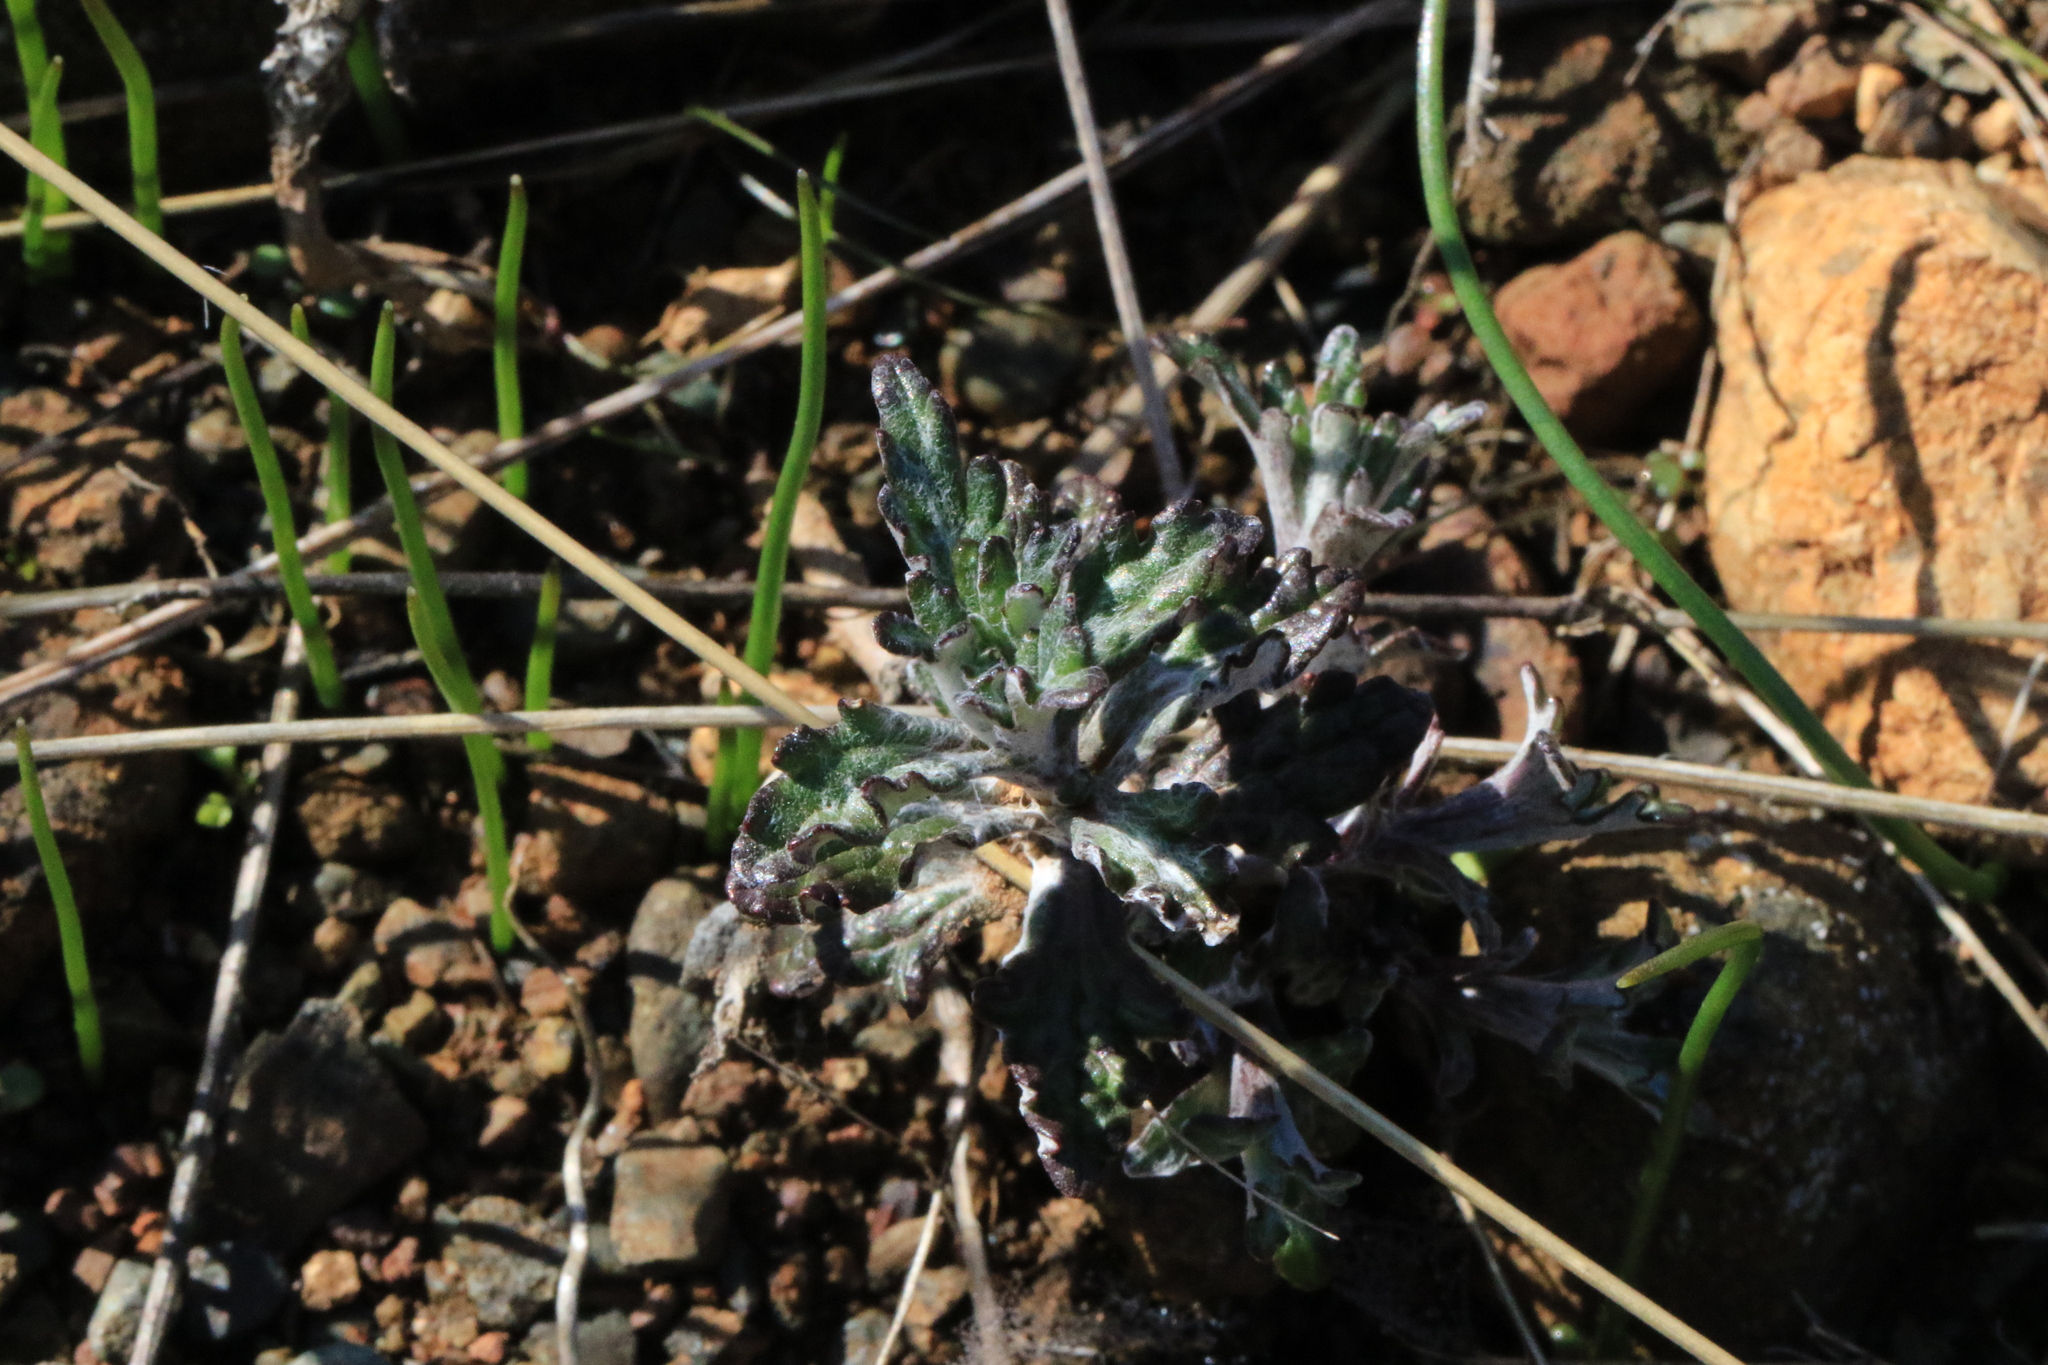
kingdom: Plantae
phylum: Tracheophyta
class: Magnoliopsida
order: Asterales
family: Asteraceae
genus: Eriophyllum
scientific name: Eriophyllum lanatum
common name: Common woolly-sunflower
